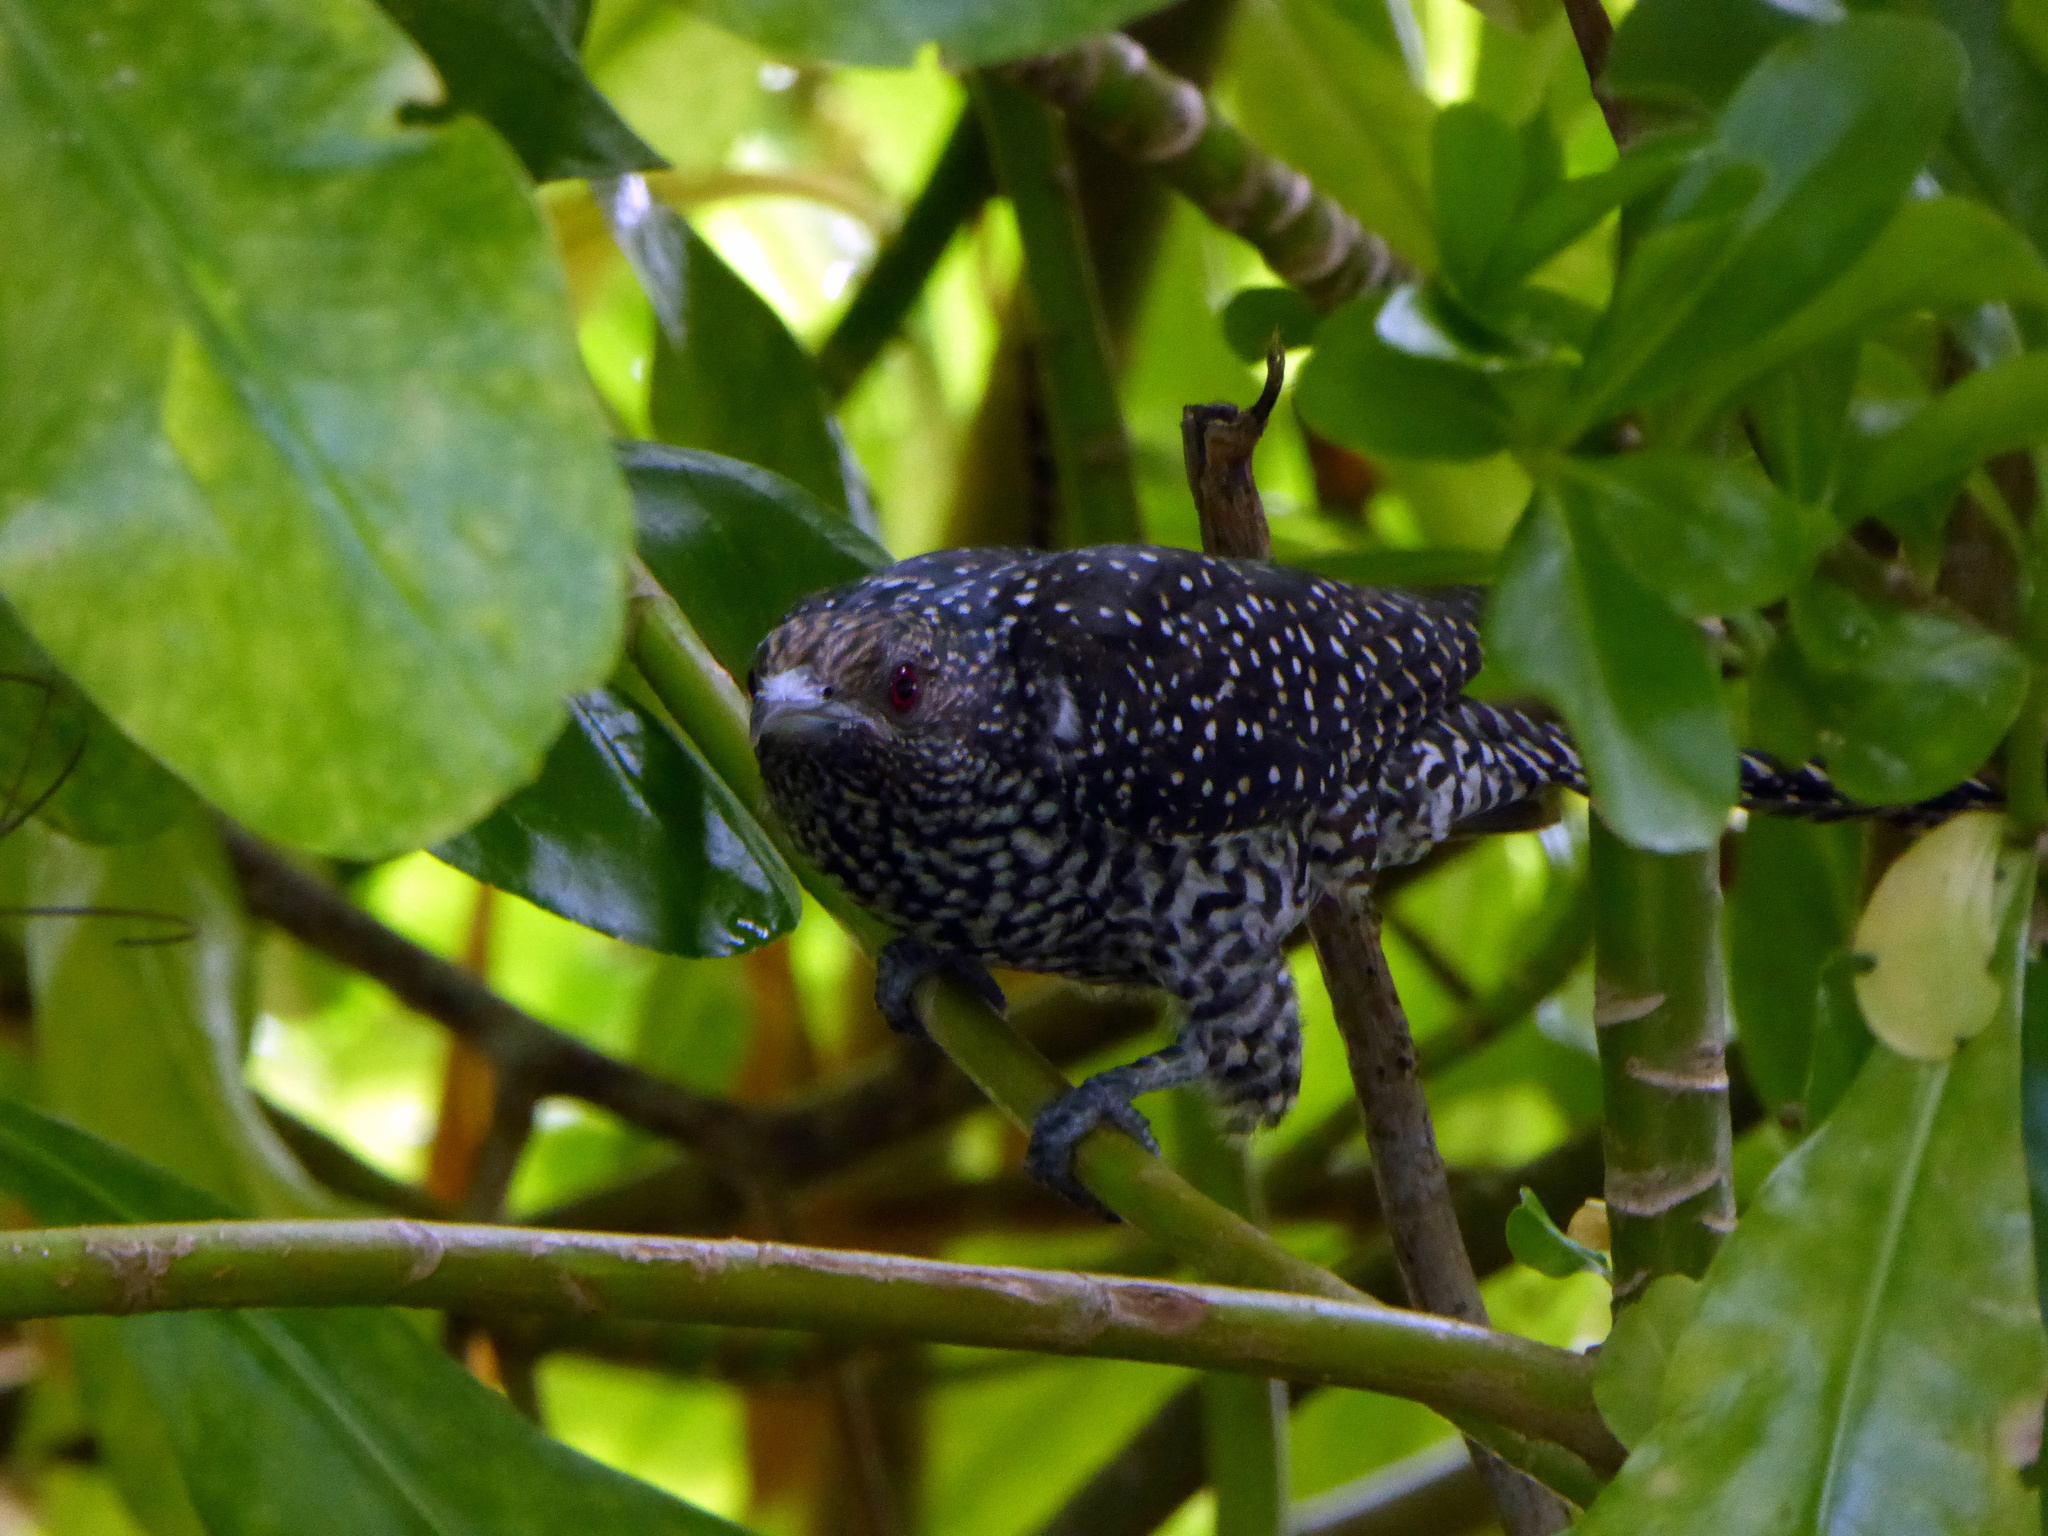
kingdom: Animalia
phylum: Chordata
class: Aves
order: Cuculiformes
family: Cuculidae
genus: Eudynamys
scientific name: Eudynamys scolopaceus
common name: Asian koel
